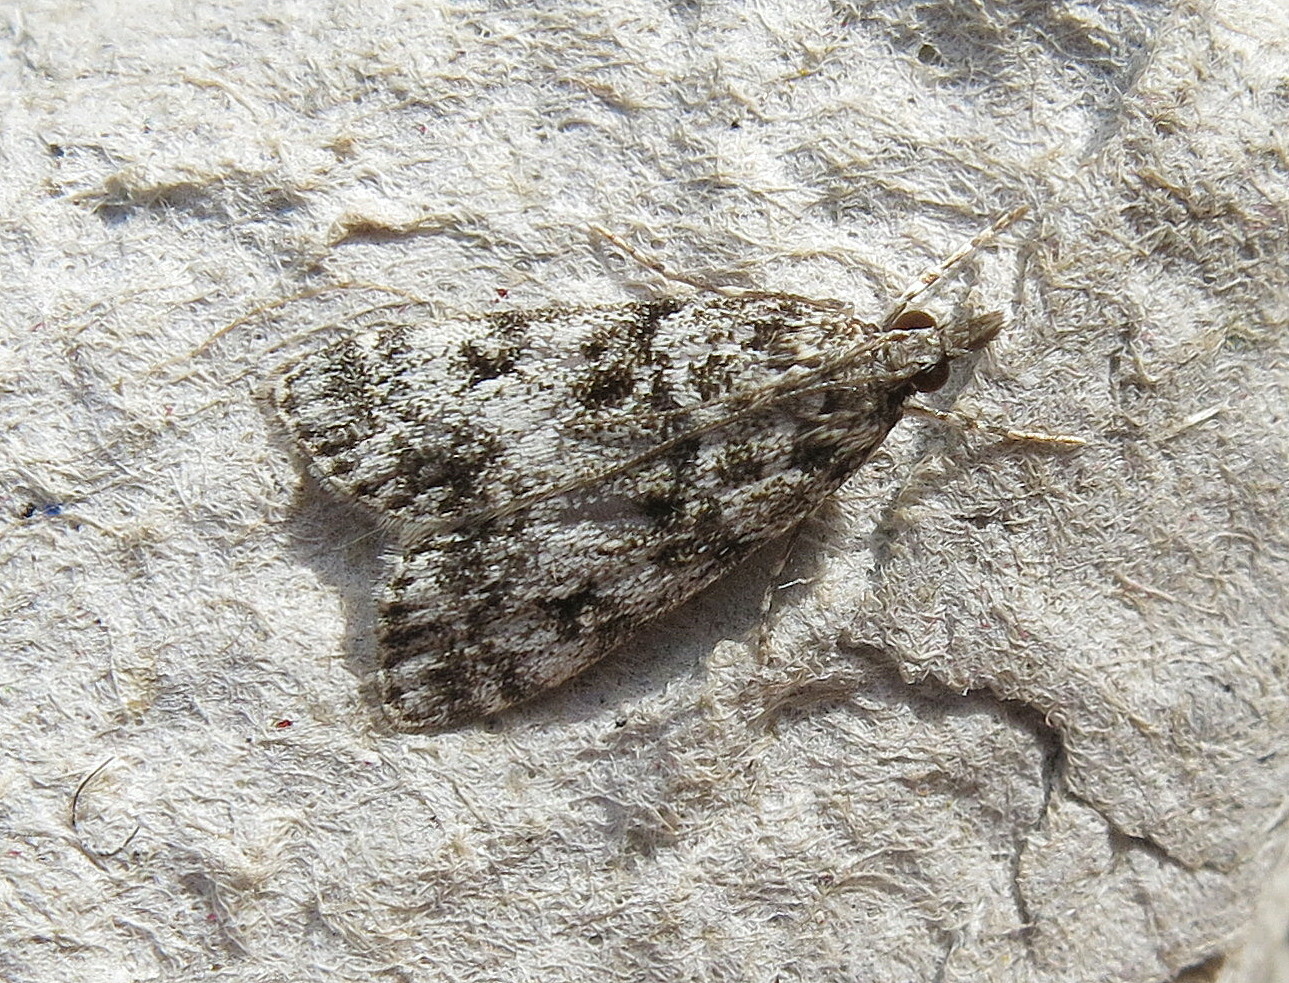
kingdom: Animalia
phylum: Arthropoda
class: Insecta
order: Lepidoptera
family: Crambidae
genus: Eudonia
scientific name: Eudonia lacustrata
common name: Little grey
